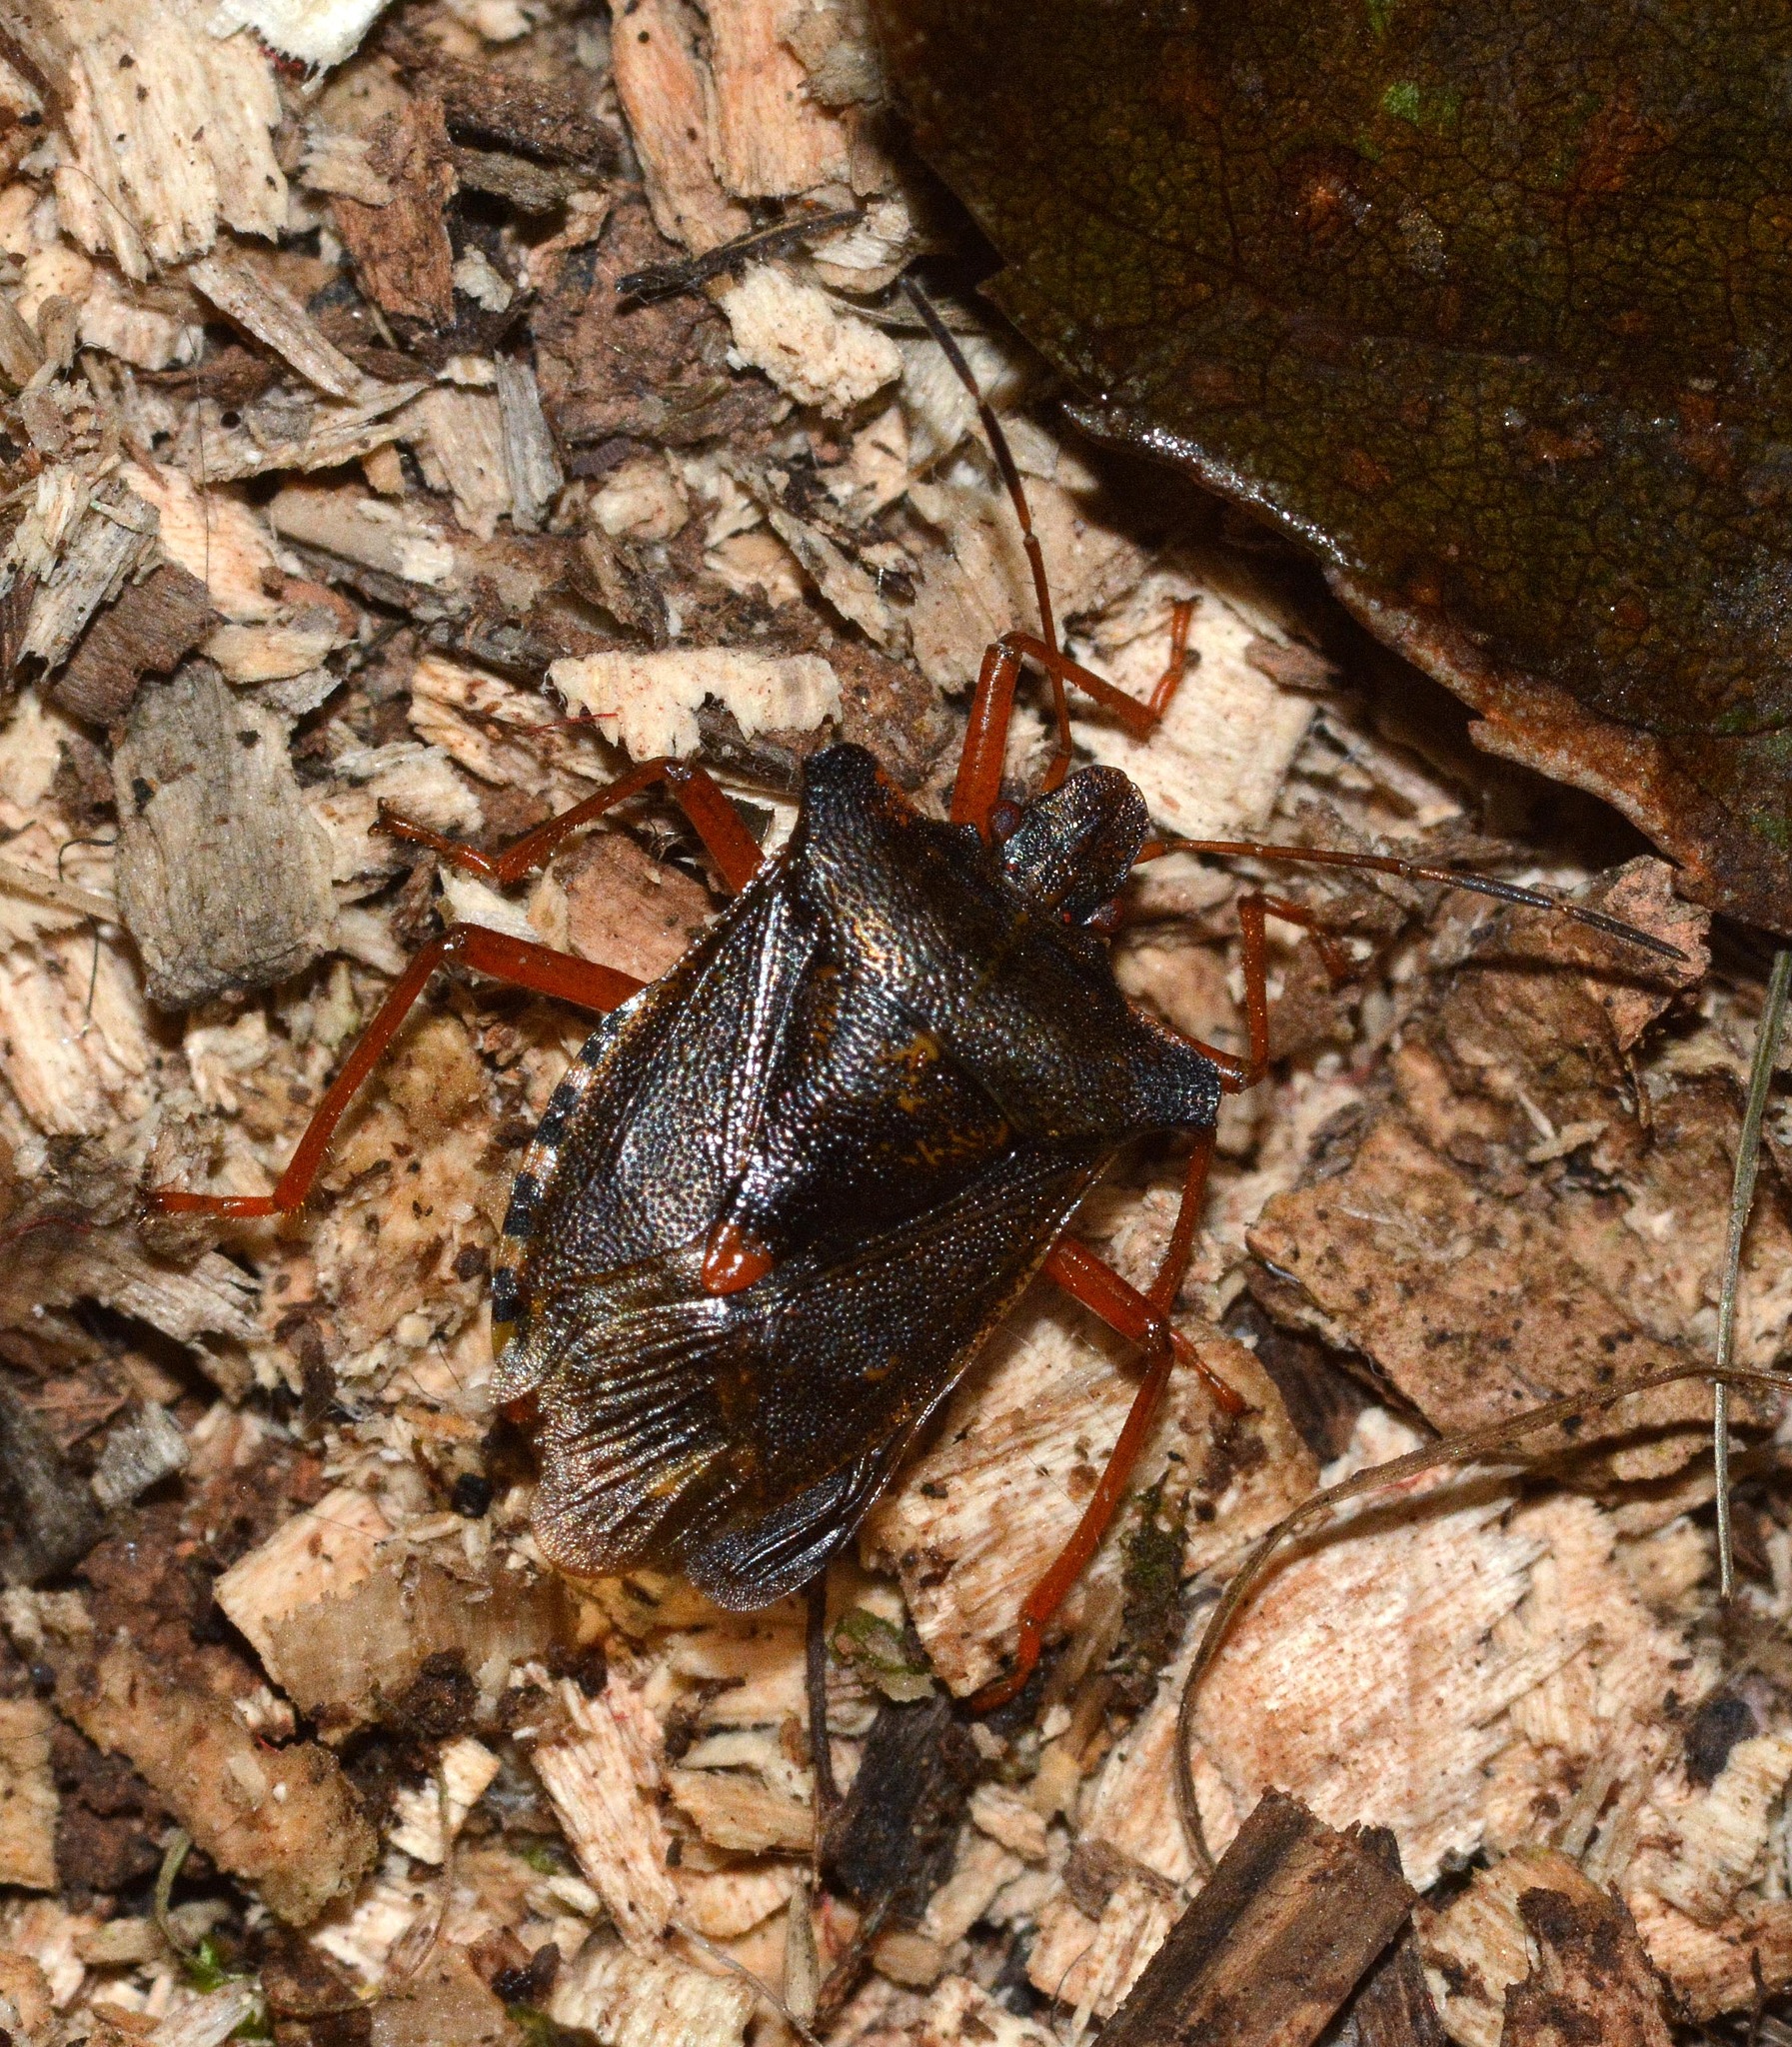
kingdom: Animalia
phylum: Arthropoda
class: Insecta
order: Hemiptera
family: Pentatomidae
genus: Pentatoma
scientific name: Pentatoma rufipes
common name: Forest bug
